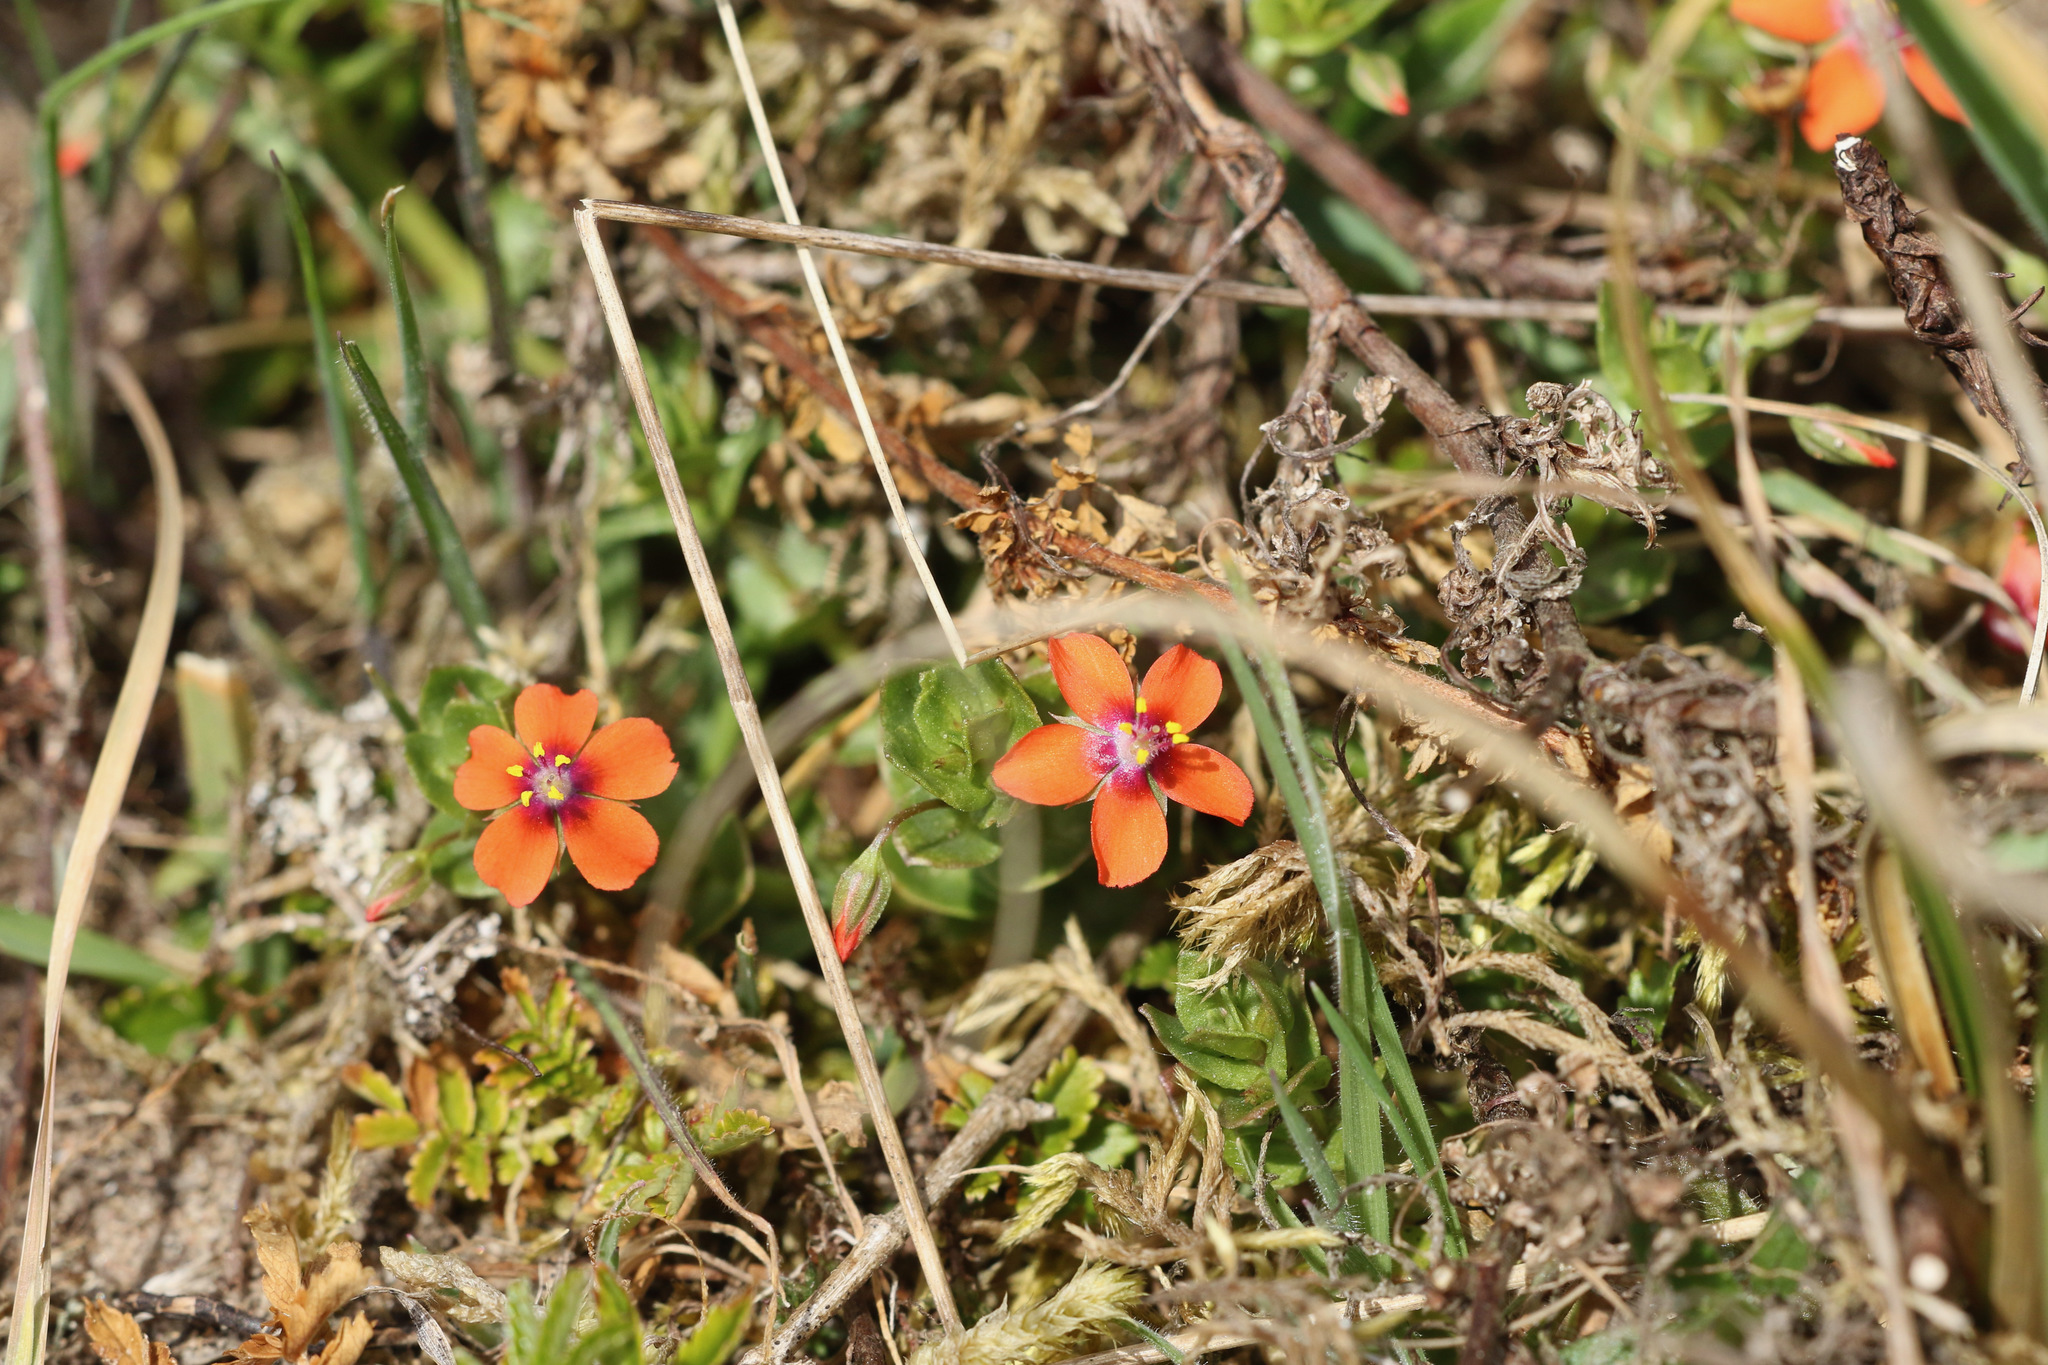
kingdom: Plantae
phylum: Tracheophyta
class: Magnoliopsida
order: Ericales
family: Primulaceae
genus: Lysimachia
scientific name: Lysimachia arvensis
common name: Scarlet pimpernel
